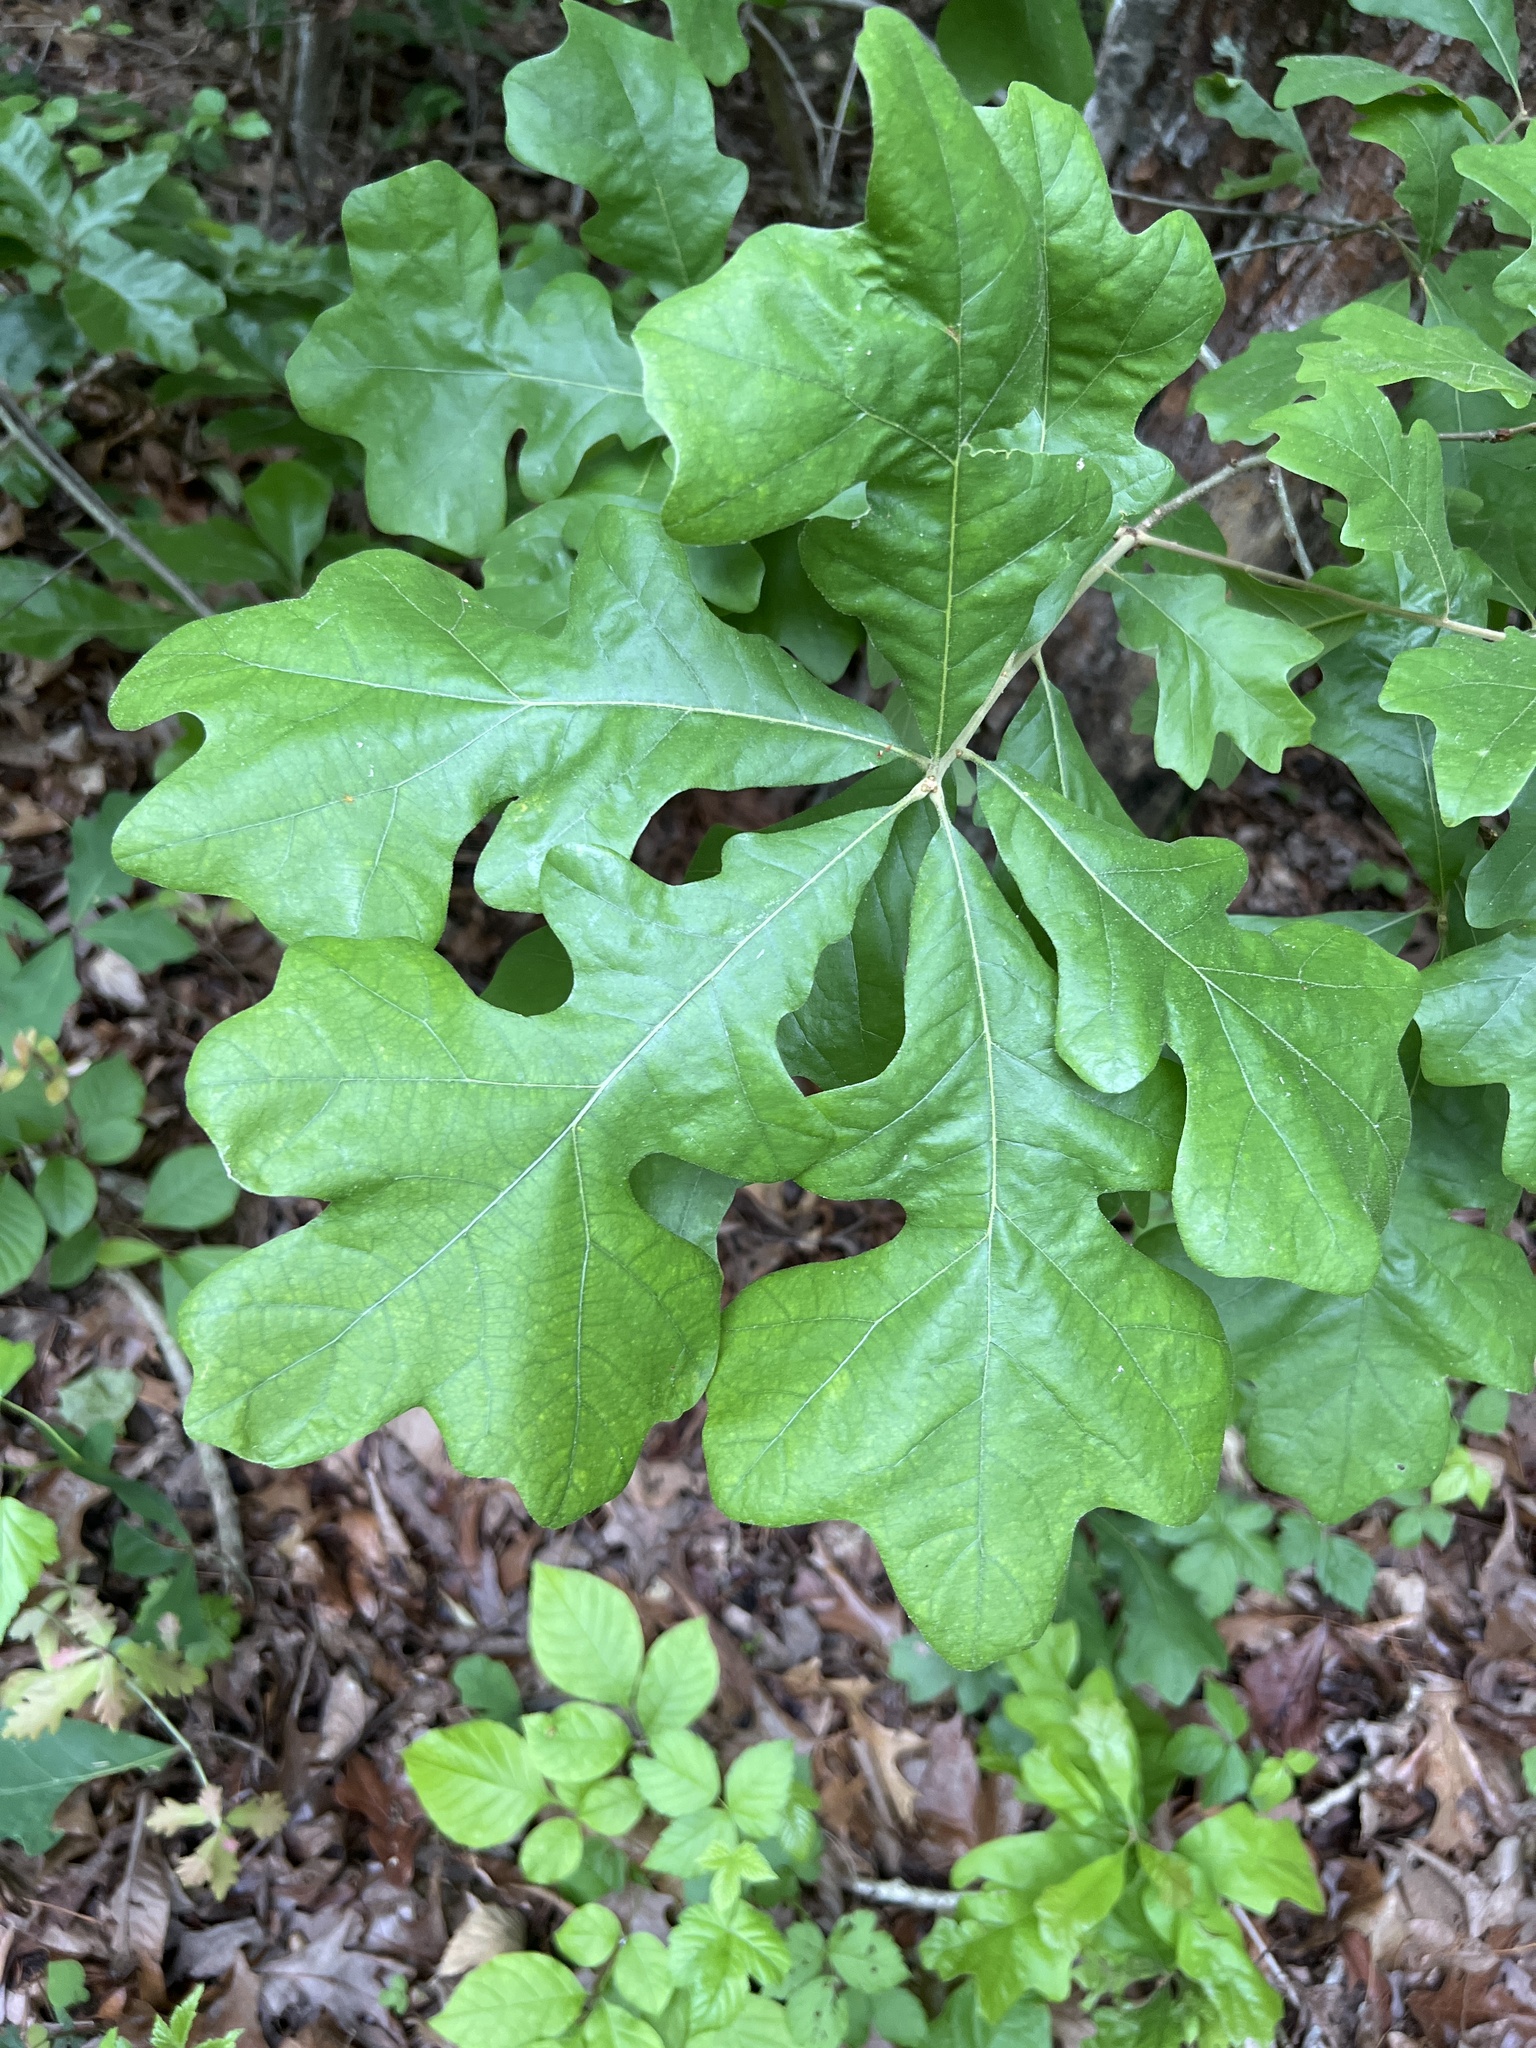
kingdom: Plantae
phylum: Tracheophyta
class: Magnoliopsida
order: Fagales
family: Fagaceae
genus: Quercus
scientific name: Quercus stellata
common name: Post oak
